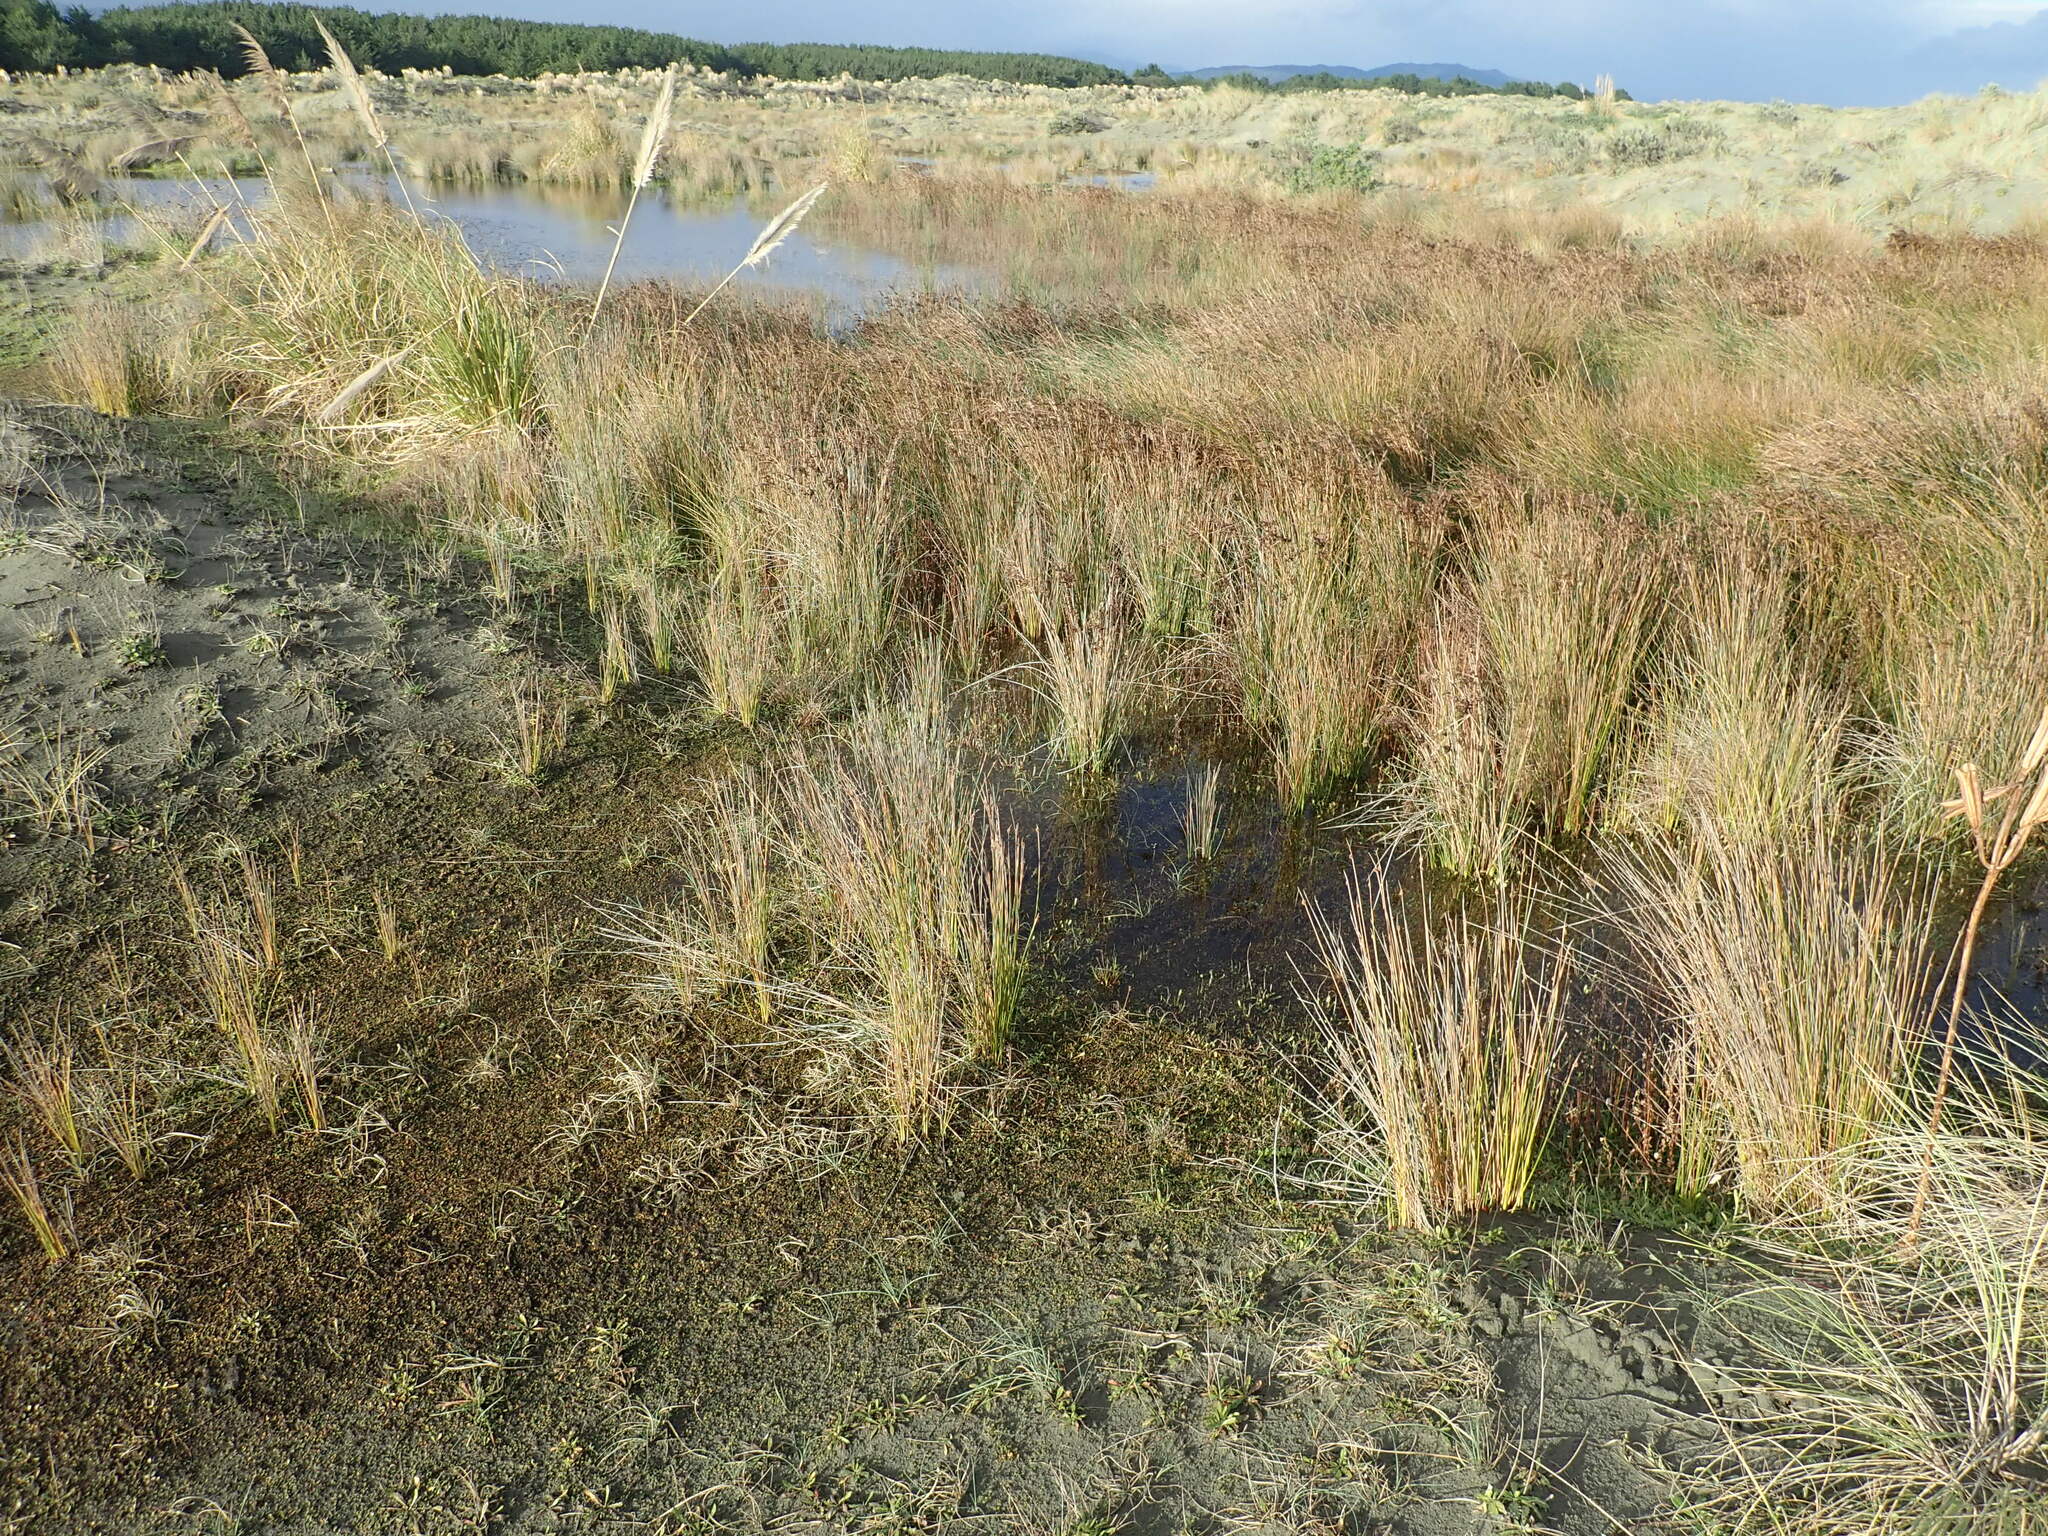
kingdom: Plantae
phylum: Tracheophyta
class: Liliopsida
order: Poales
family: Juncaceae
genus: Juncus
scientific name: Juncus kraussii
